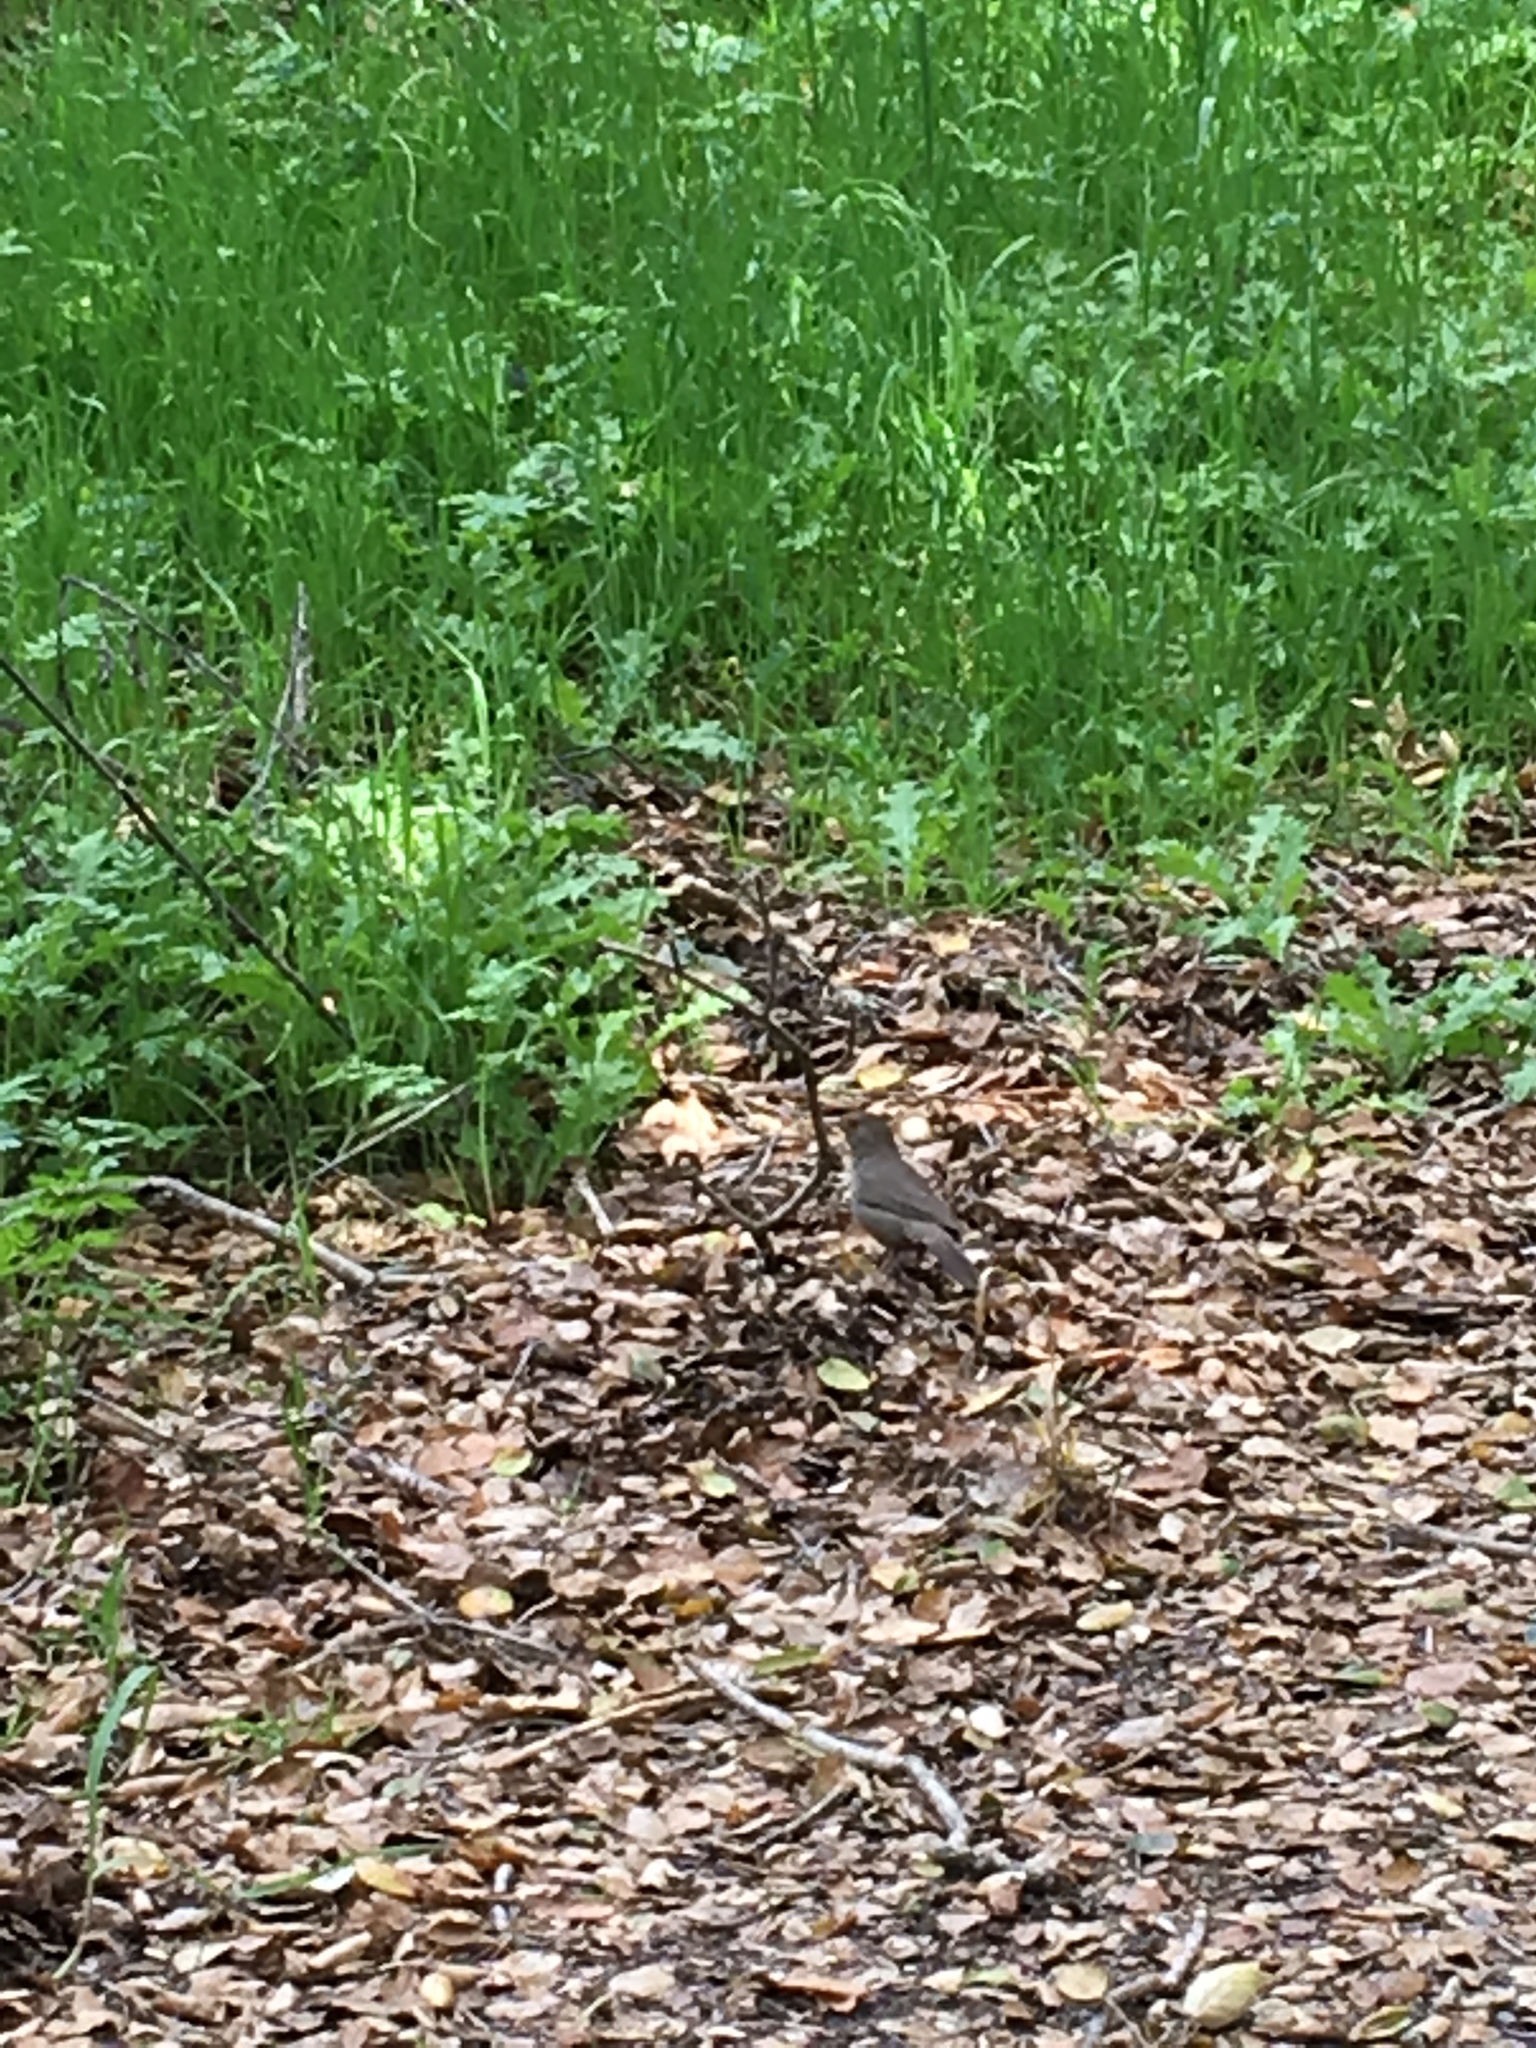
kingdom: Animalia
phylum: Chordata
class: Aves
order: Passeriformes
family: Passerellidae
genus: Melozone
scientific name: Melozone crissalis
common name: California towhee
